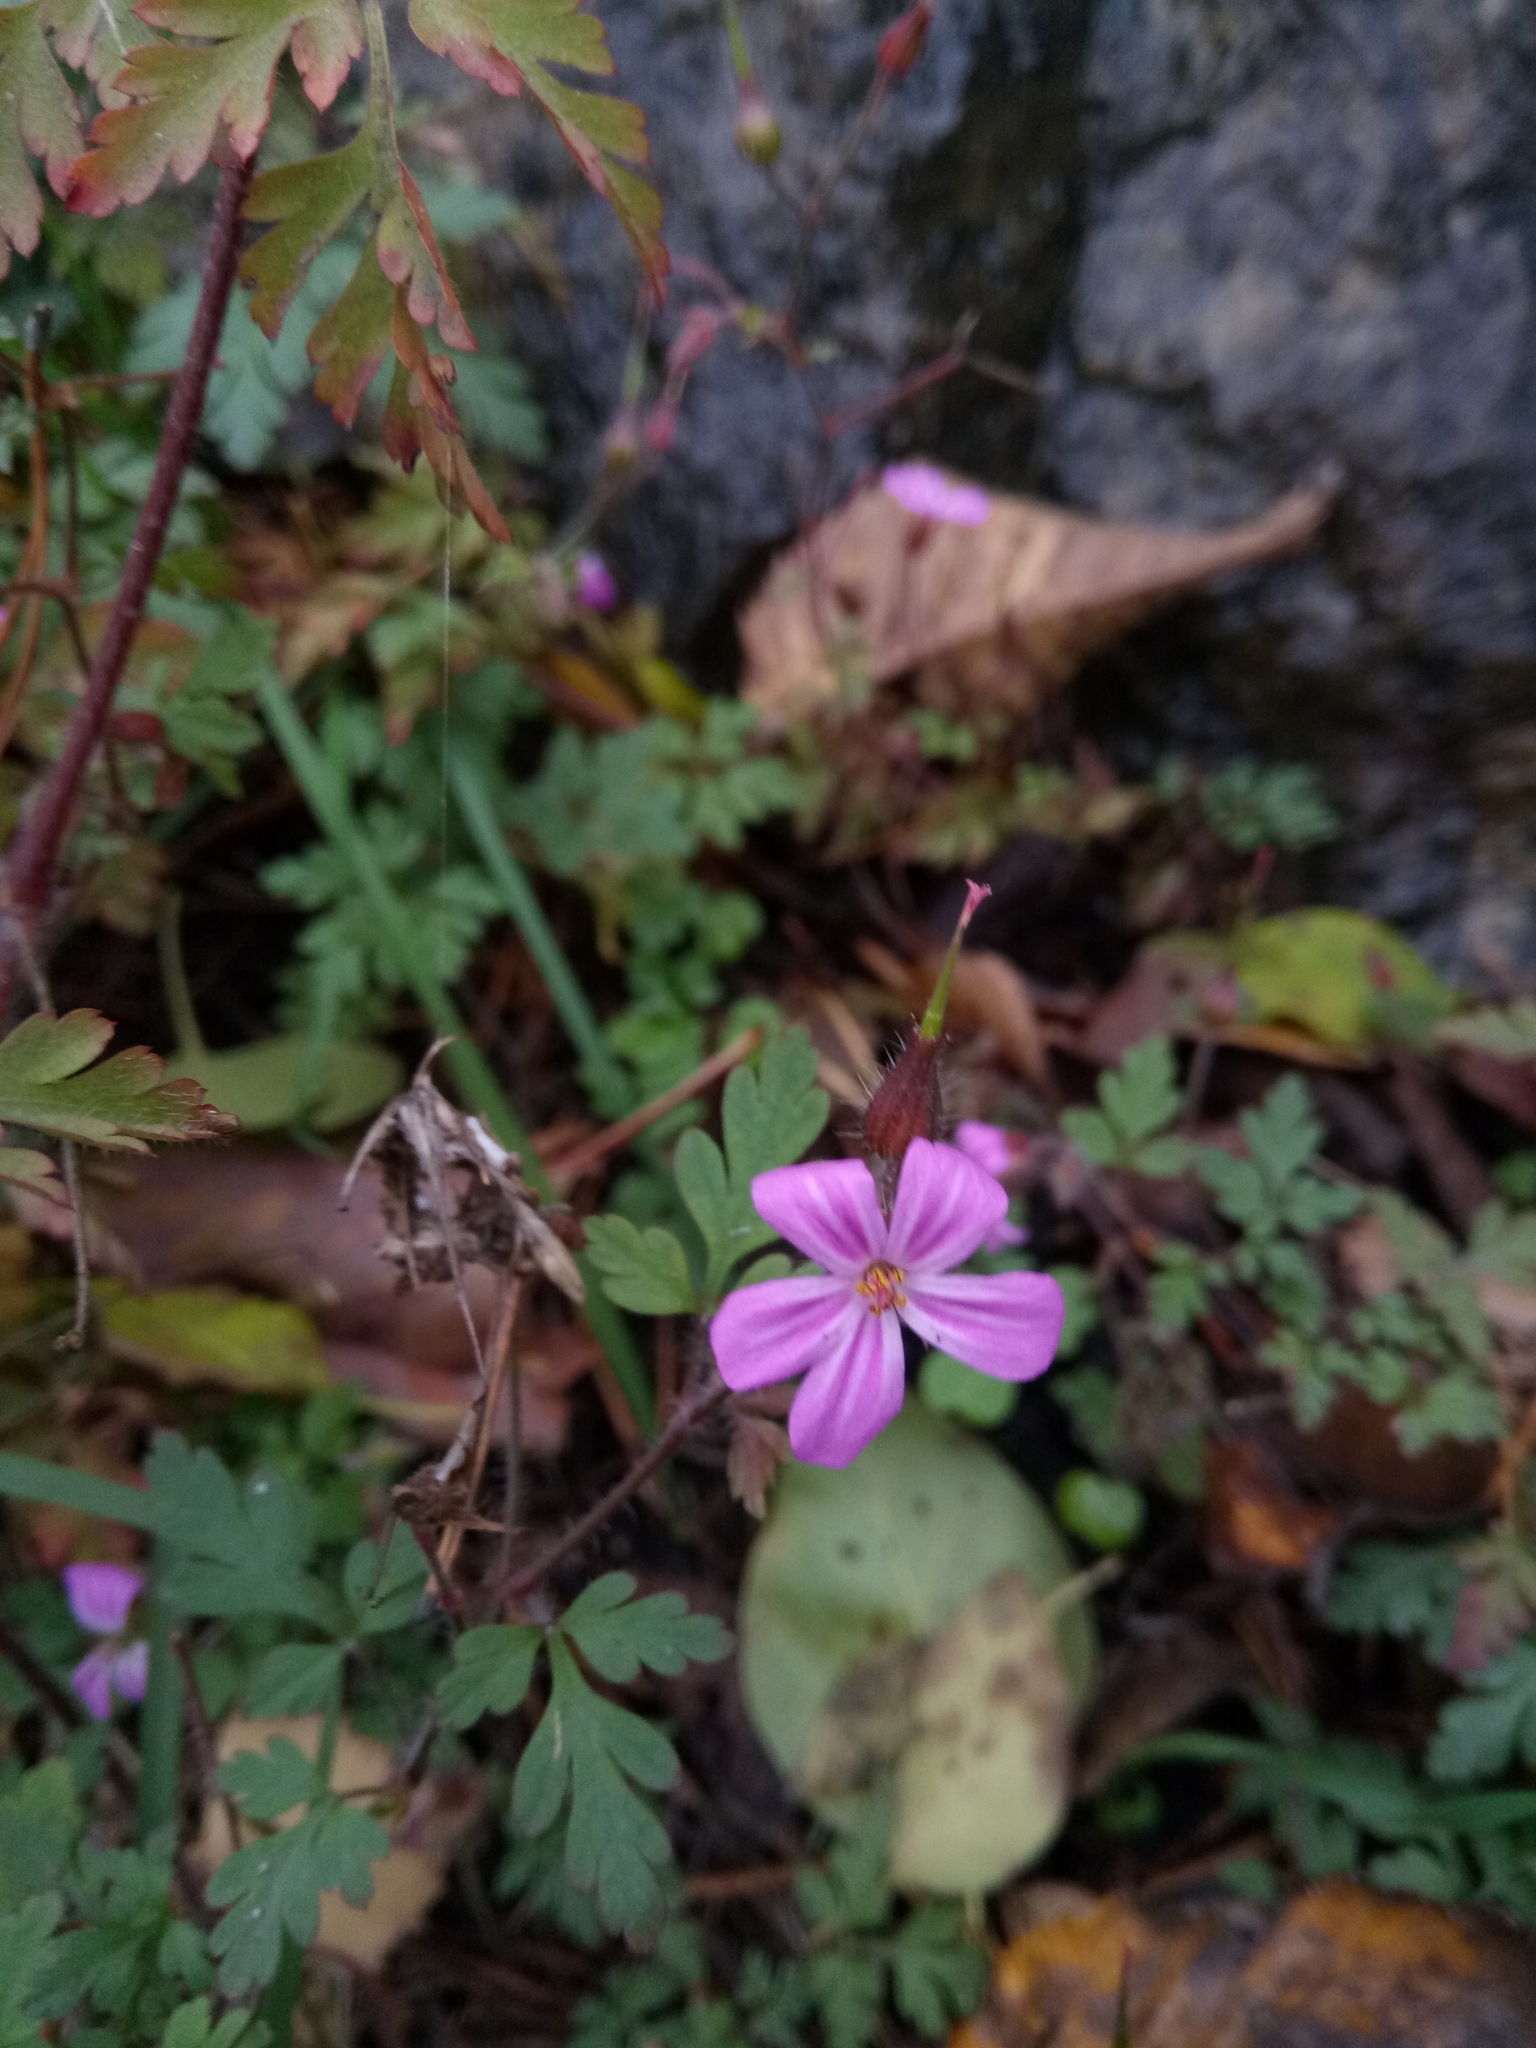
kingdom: Plantae
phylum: Tracheophyta
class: Magnoliopsida
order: Geraniales
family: Geraniaceae
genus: Geranium
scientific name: Geranium robertianum
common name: Herb-robert
